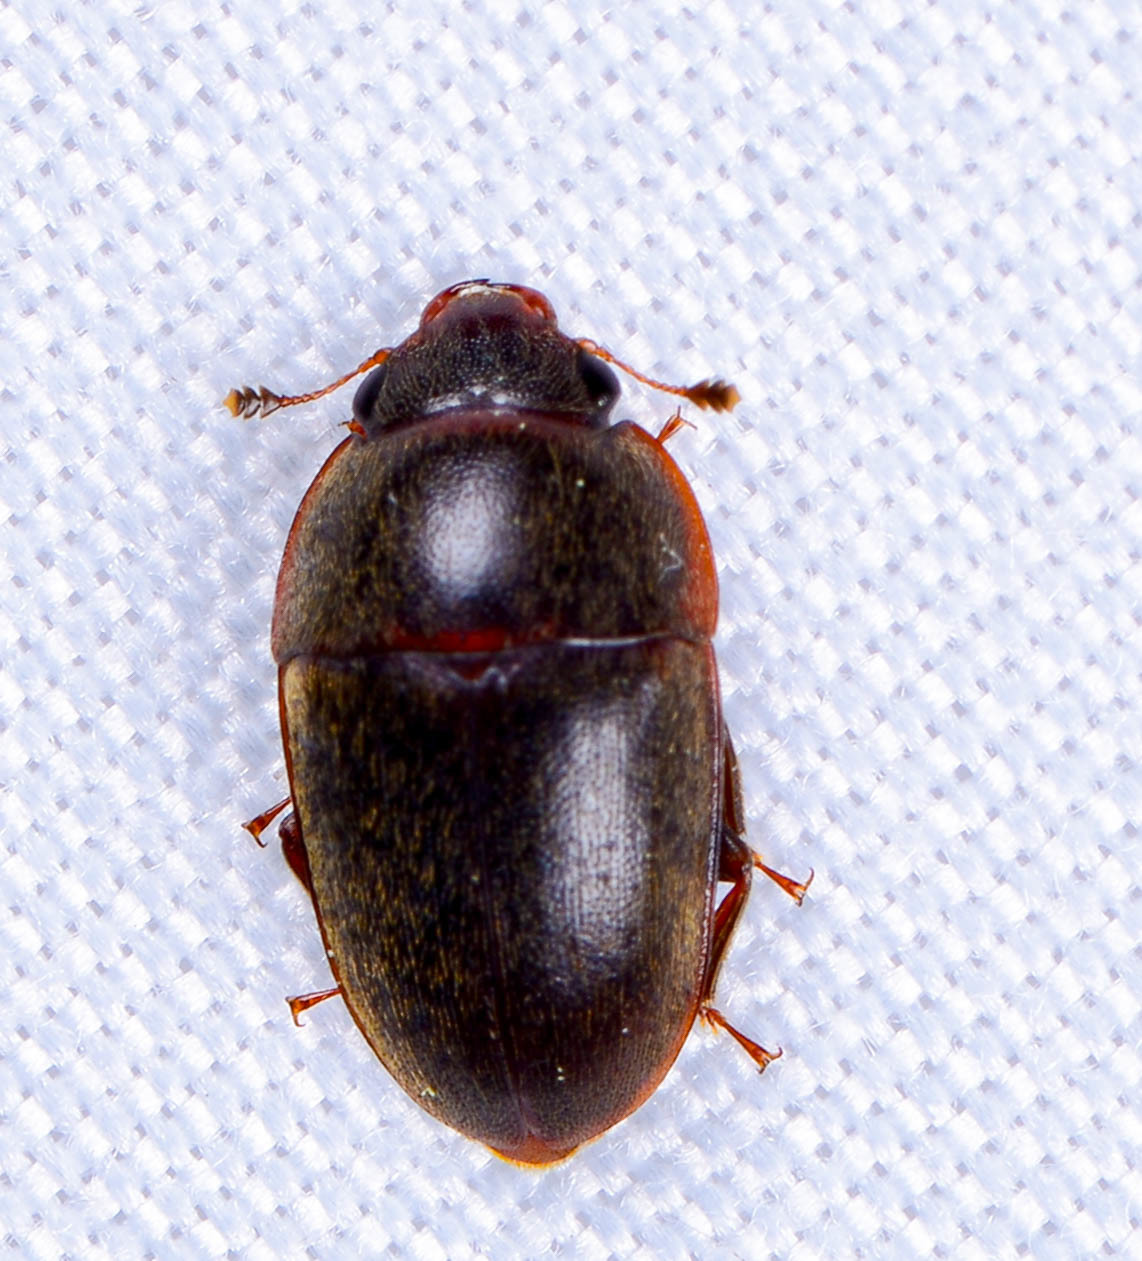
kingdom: Animalia
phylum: Arthropoda
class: Insecta
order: Coleoptera
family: Nitidulidae
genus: Cryptarcha
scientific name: Cryptarcha ampla
